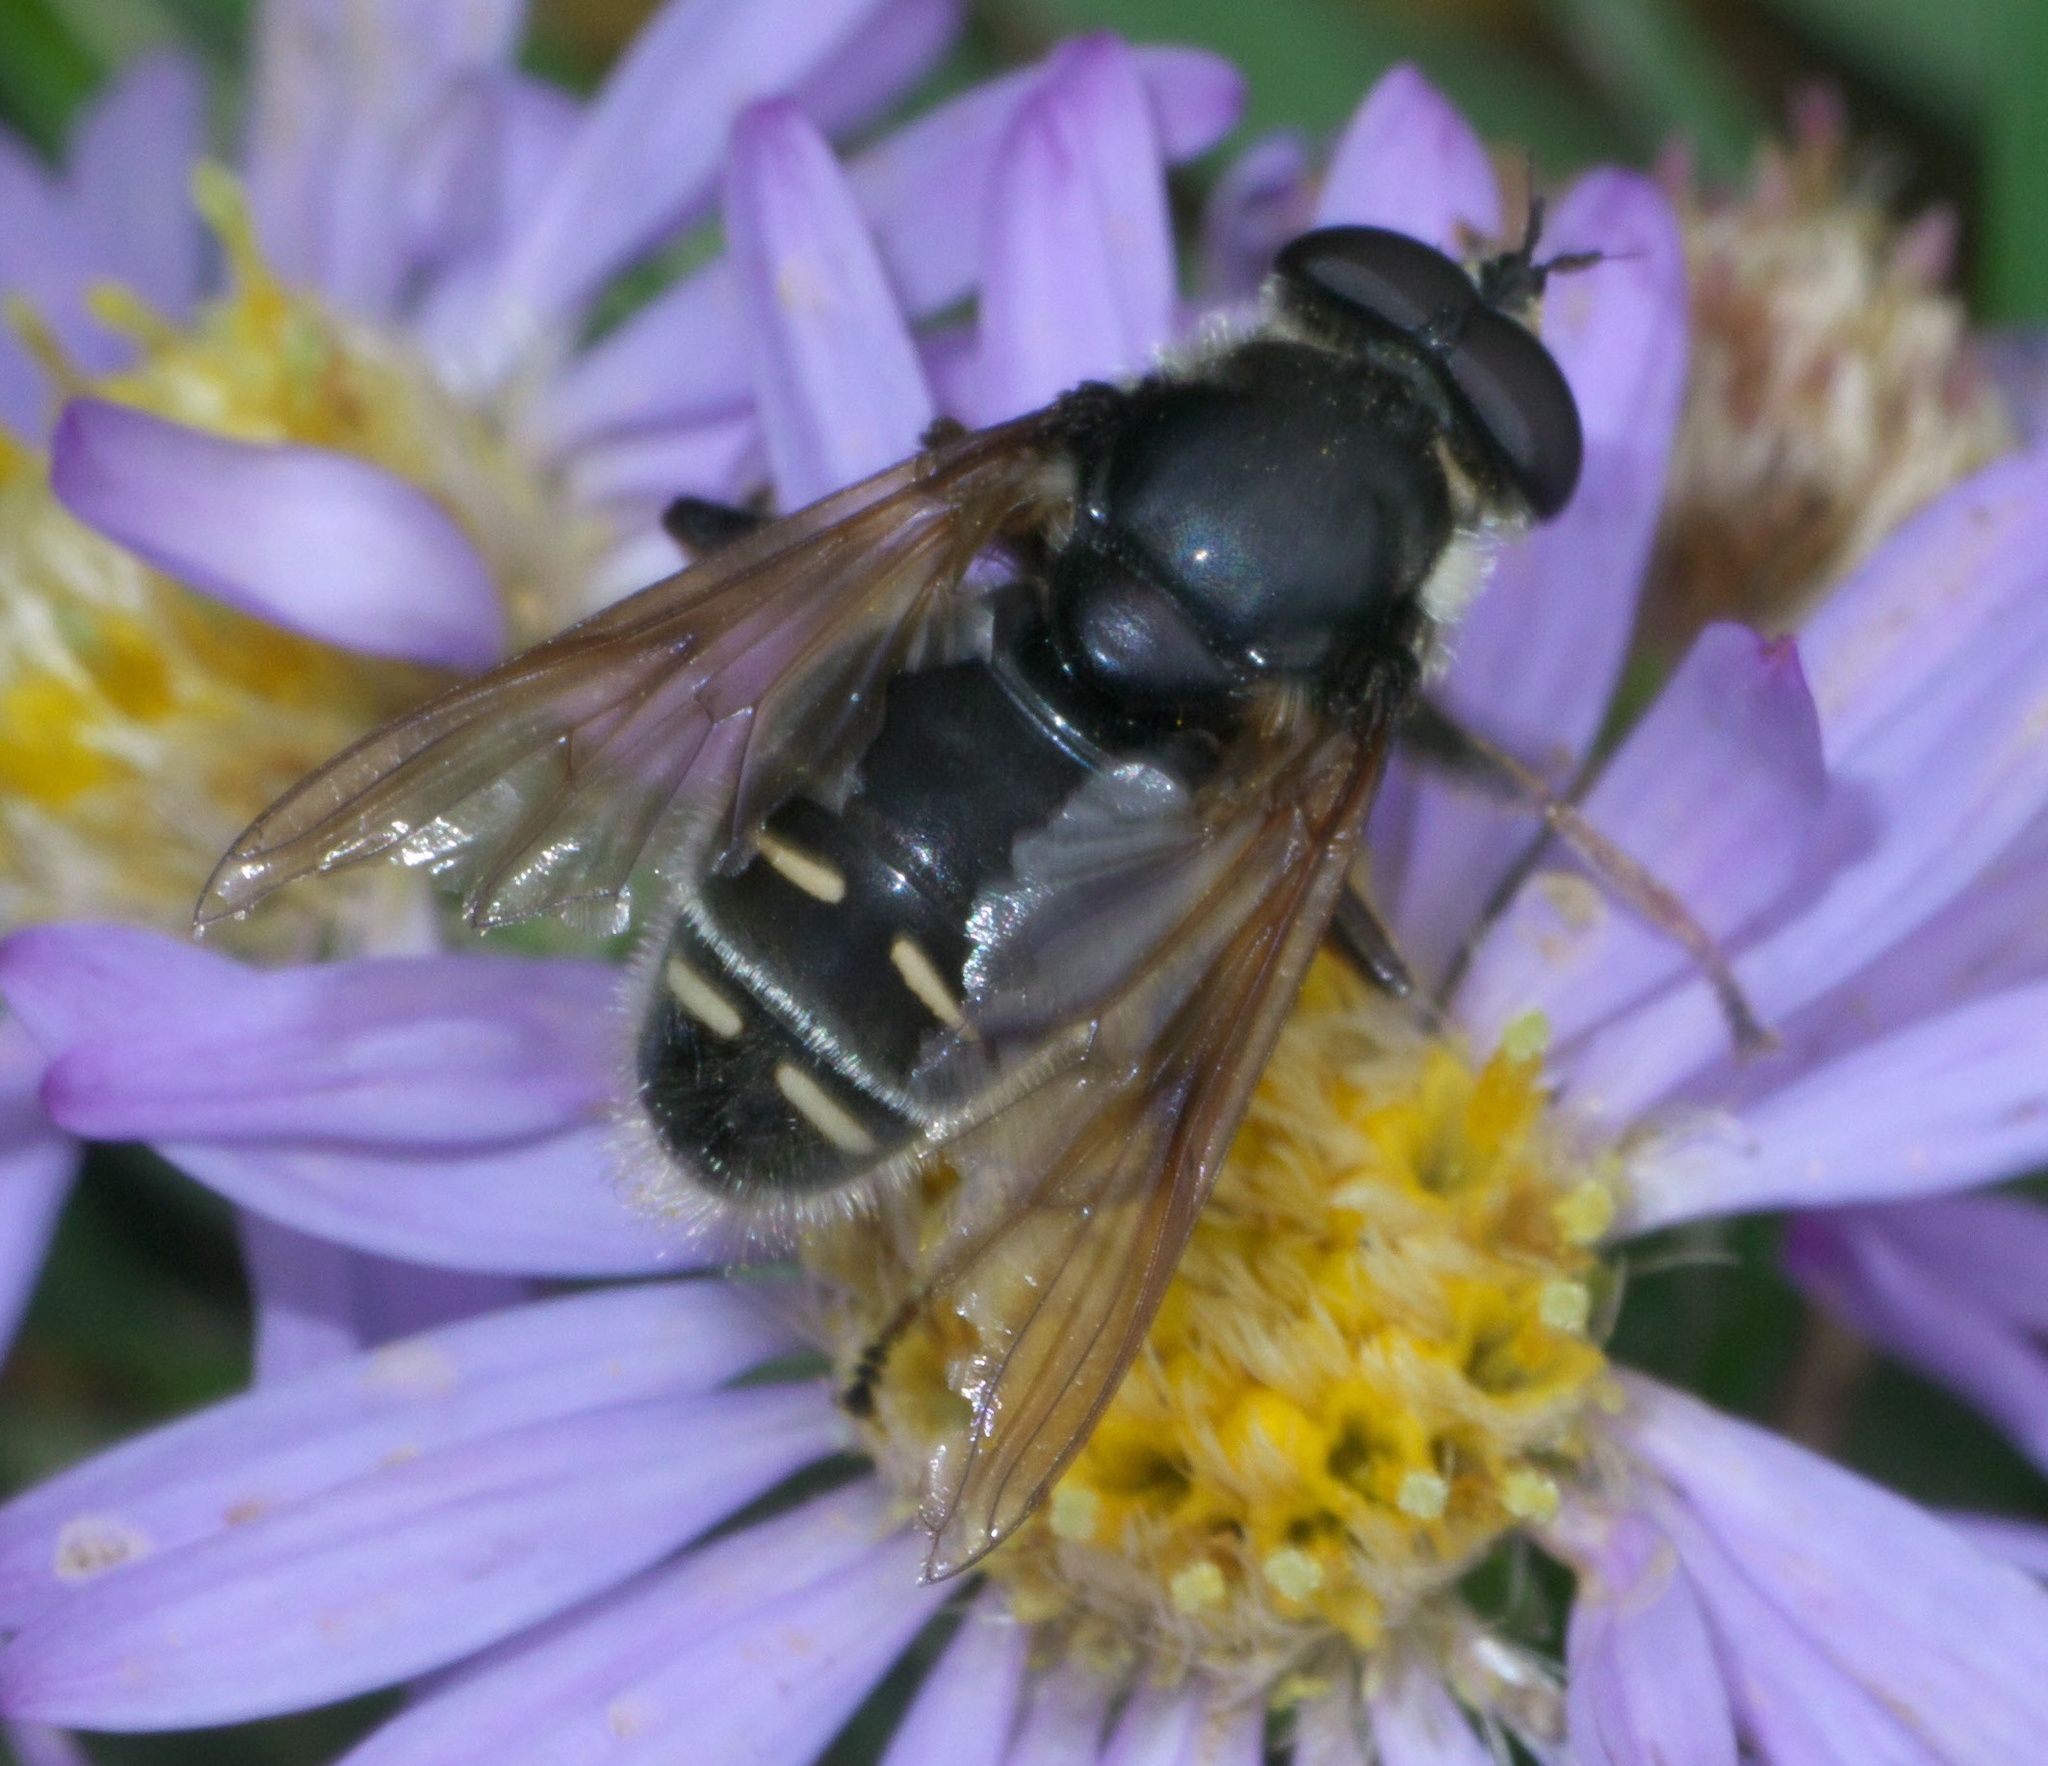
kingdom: Animalia
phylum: Arthropoda
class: Insecta
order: Diptera
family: Syrphidae
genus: Sericomyia
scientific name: Sericomyia militaris
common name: Narrow-banded pond fly
